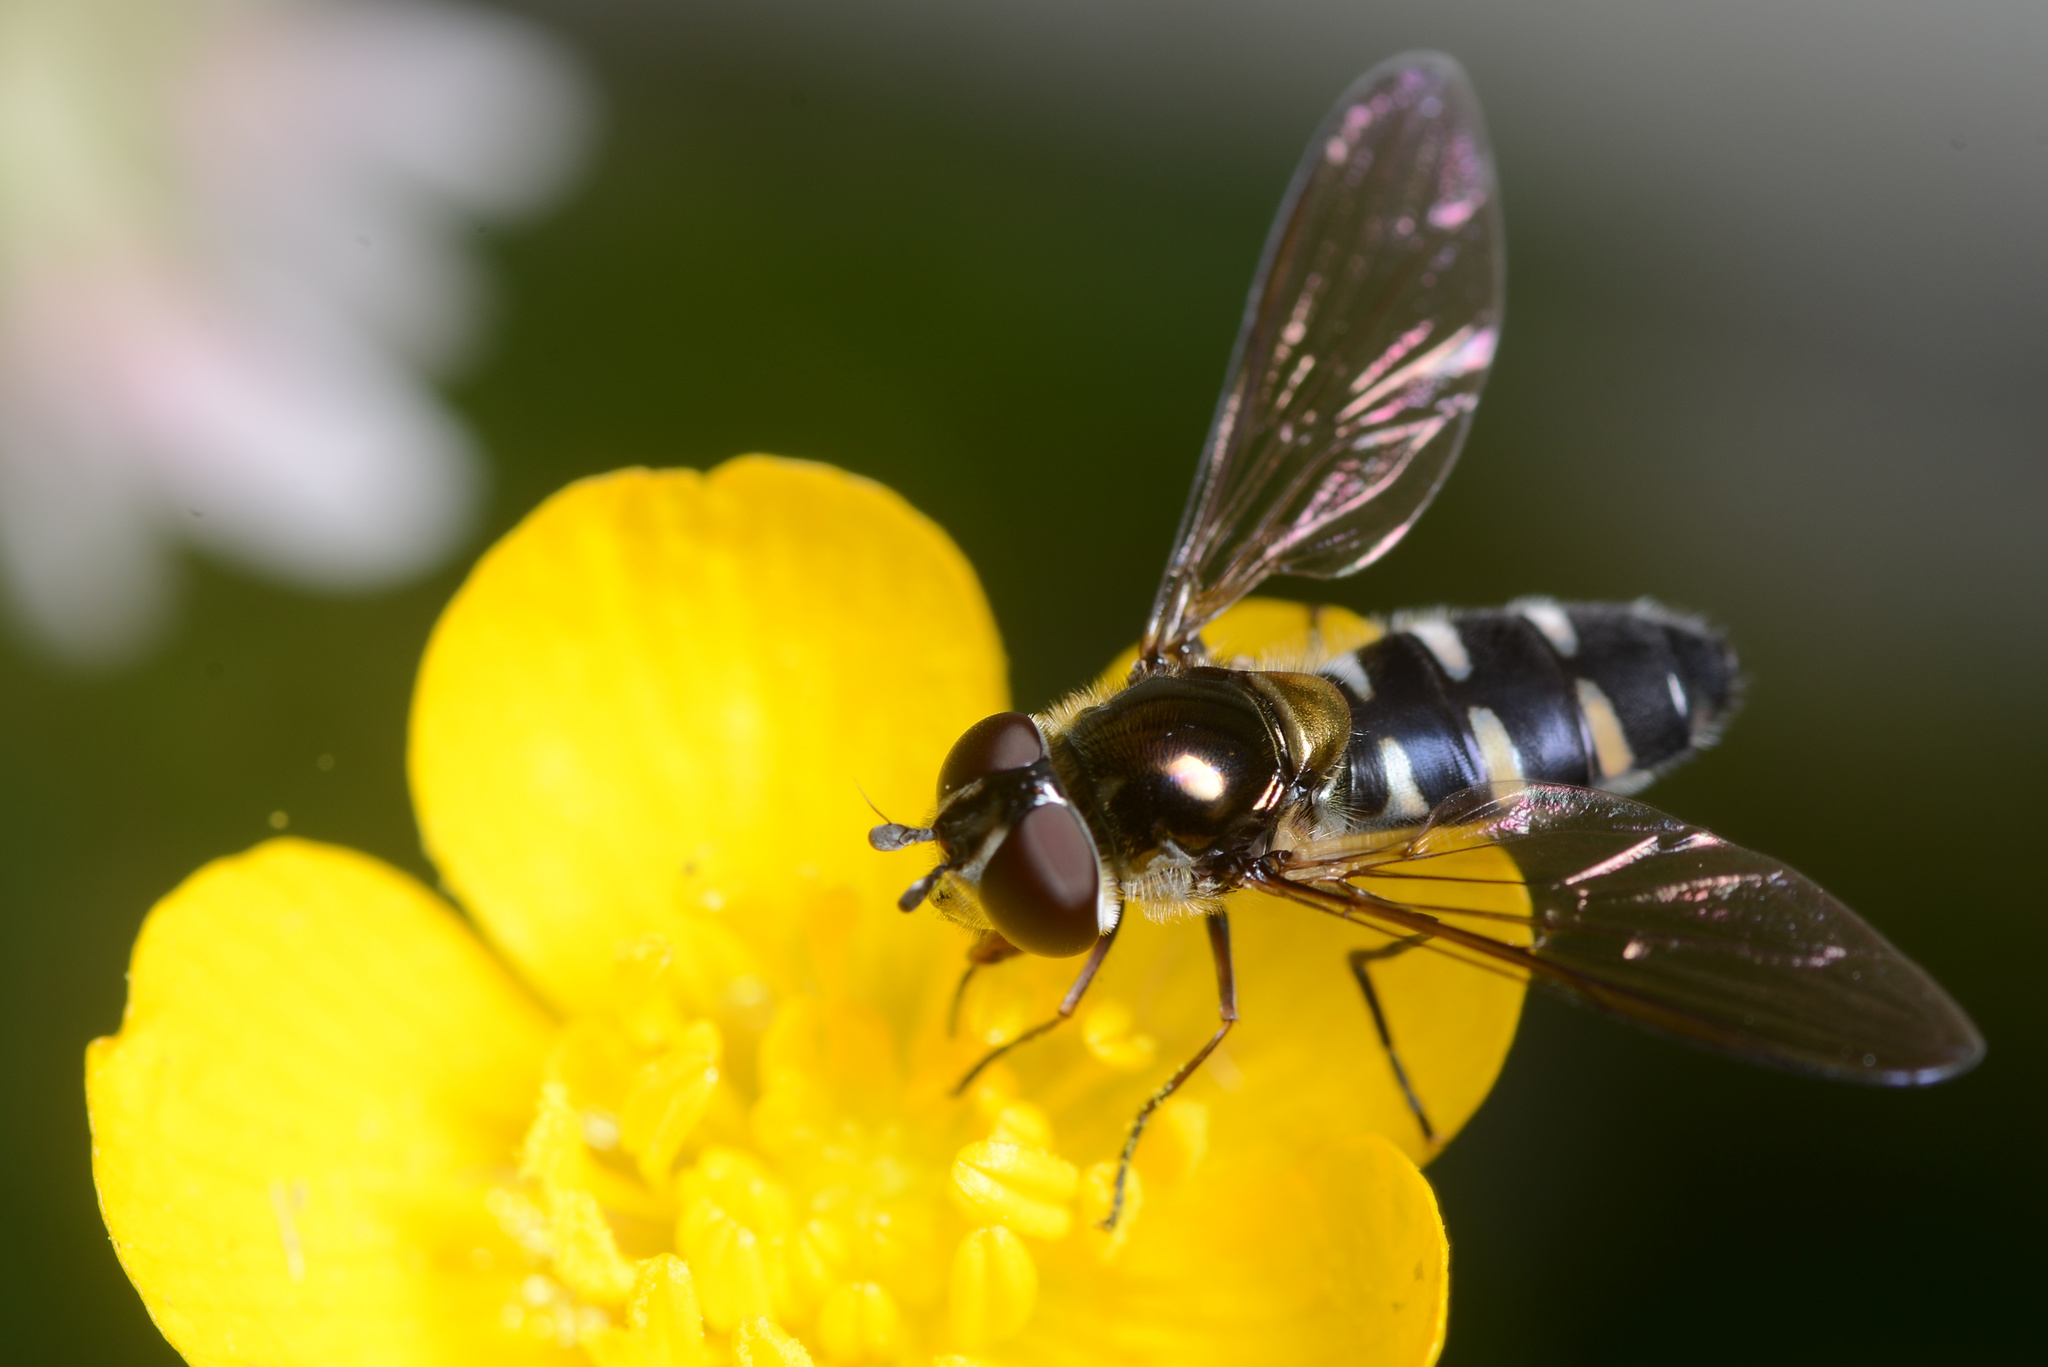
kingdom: Animalia
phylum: Arthropoda
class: Insecta
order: Diptera
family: Syrphidae
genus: Melangyna
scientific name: Melangyna novaezelandiae
